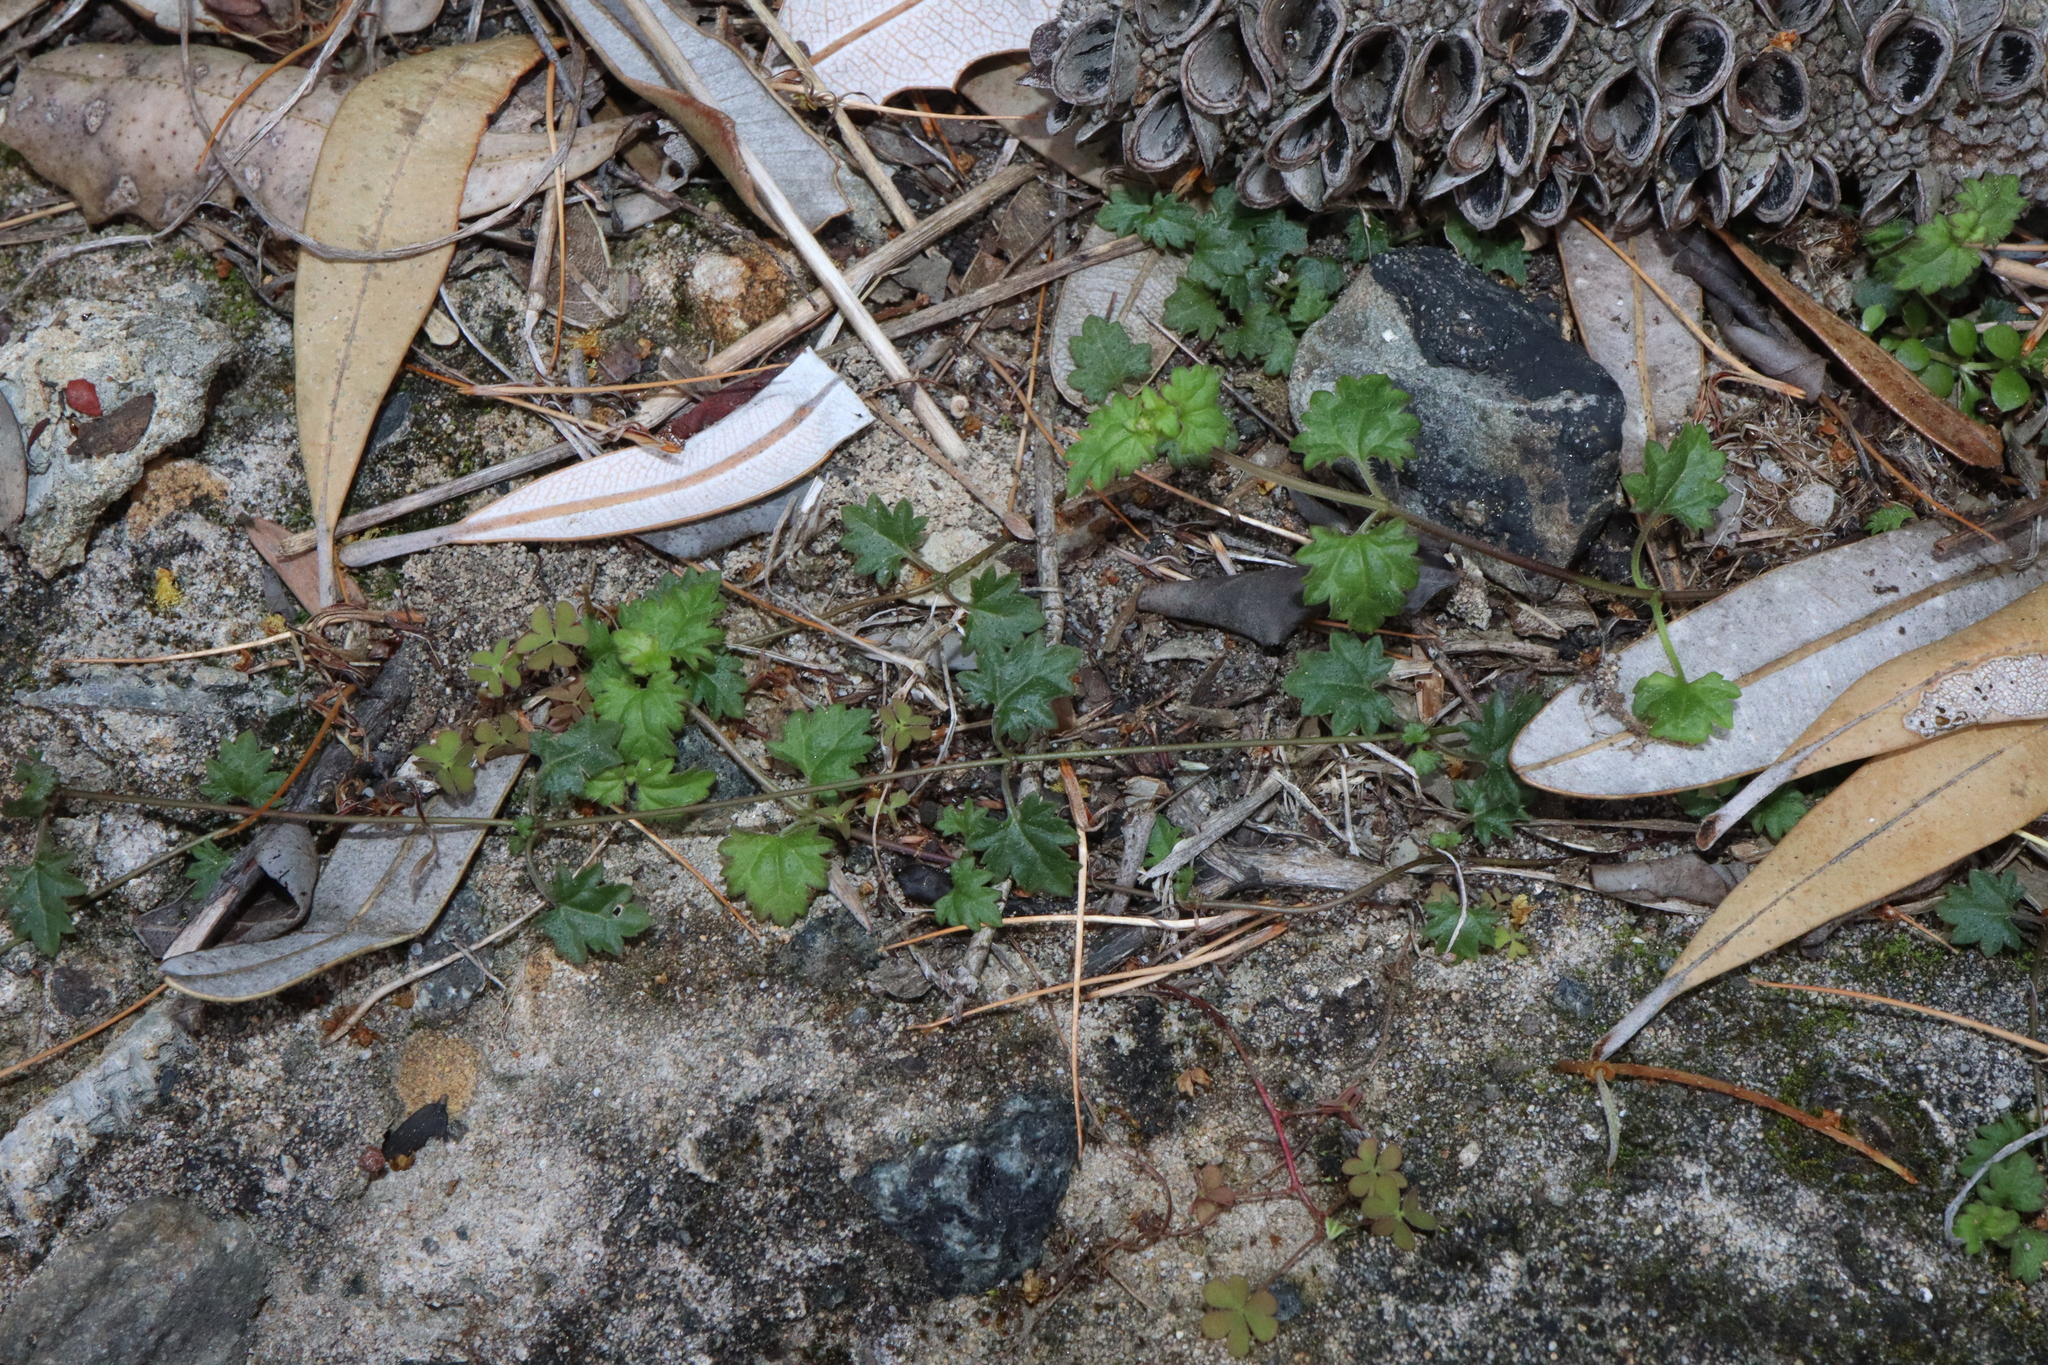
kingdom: Plantae
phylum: Tracheophyta
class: Magnoliopsida
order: Lamiales
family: Plantaginaceae
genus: Veronica
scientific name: Veronica plebeia
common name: Speedwell
